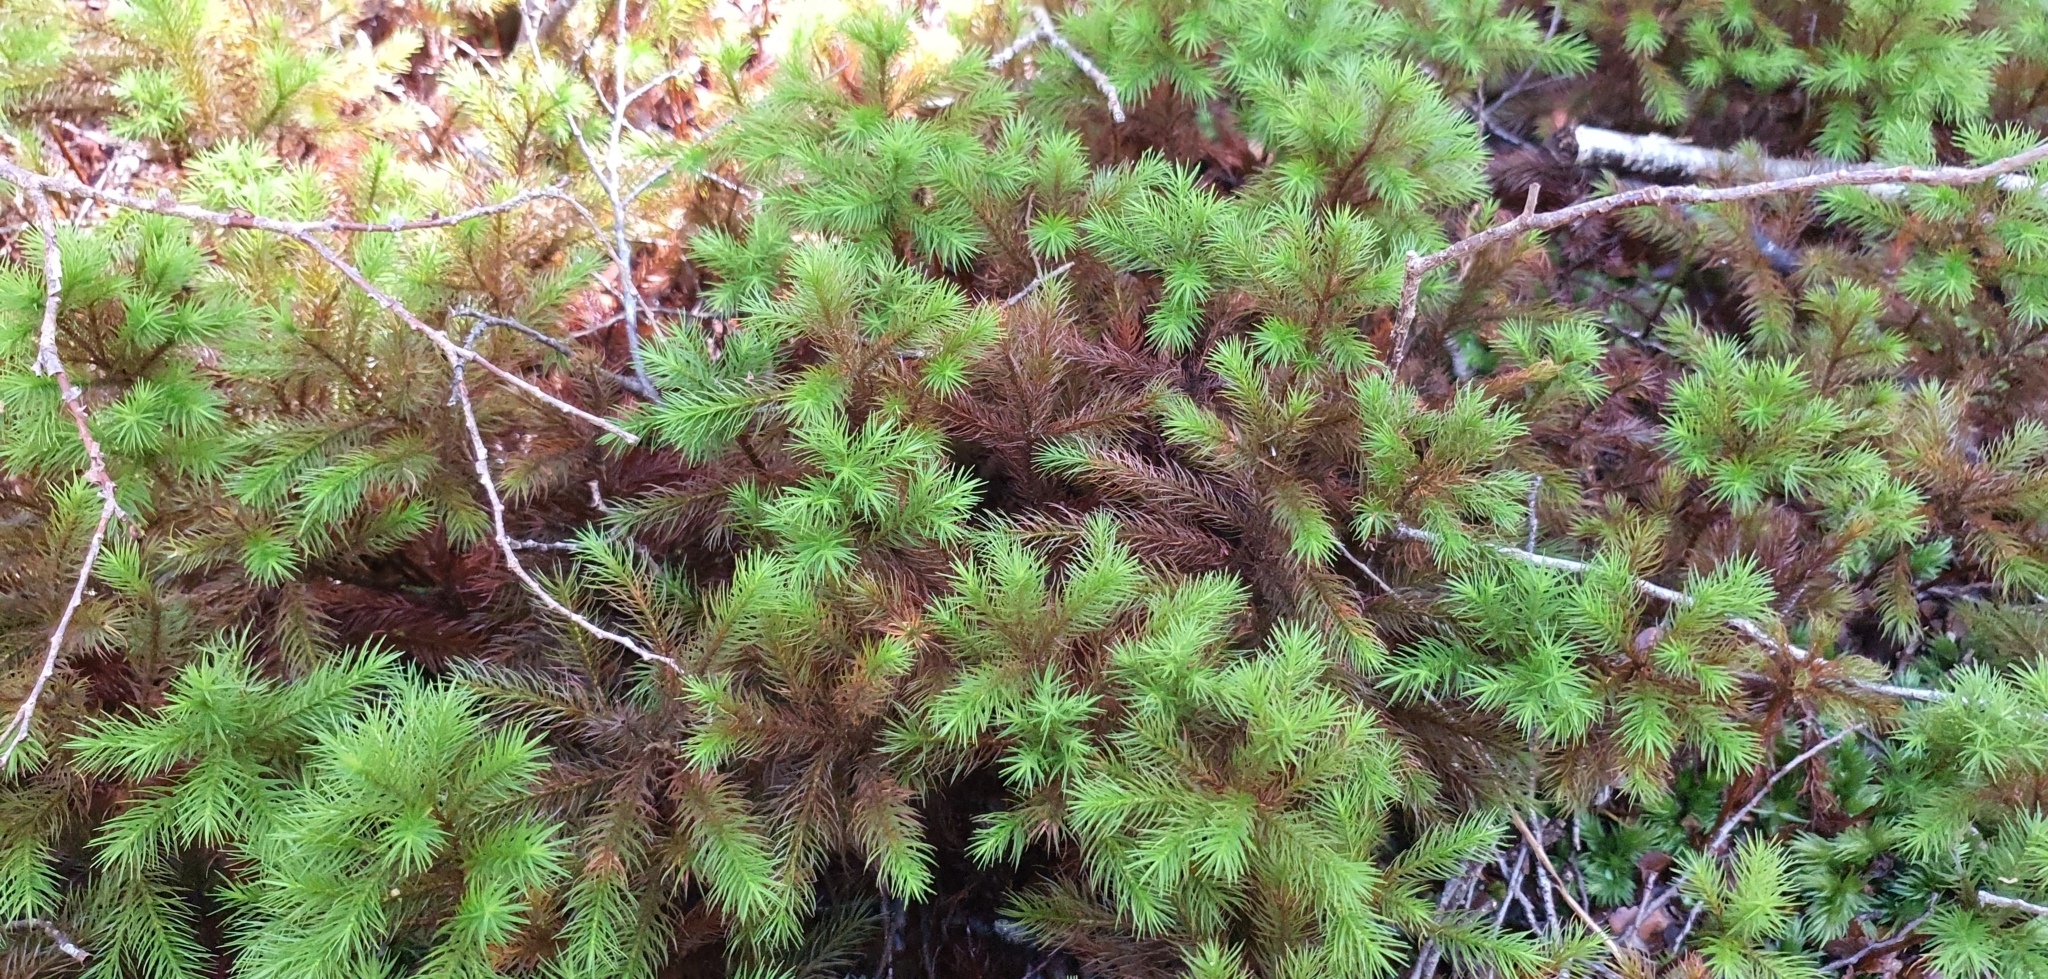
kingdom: Plantae
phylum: Bryophyta
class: Polytrichopsida
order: Polytrichales
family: Polytrichaceae
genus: Dendroligotrichum
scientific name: Dendroligotrichum tongariroense
